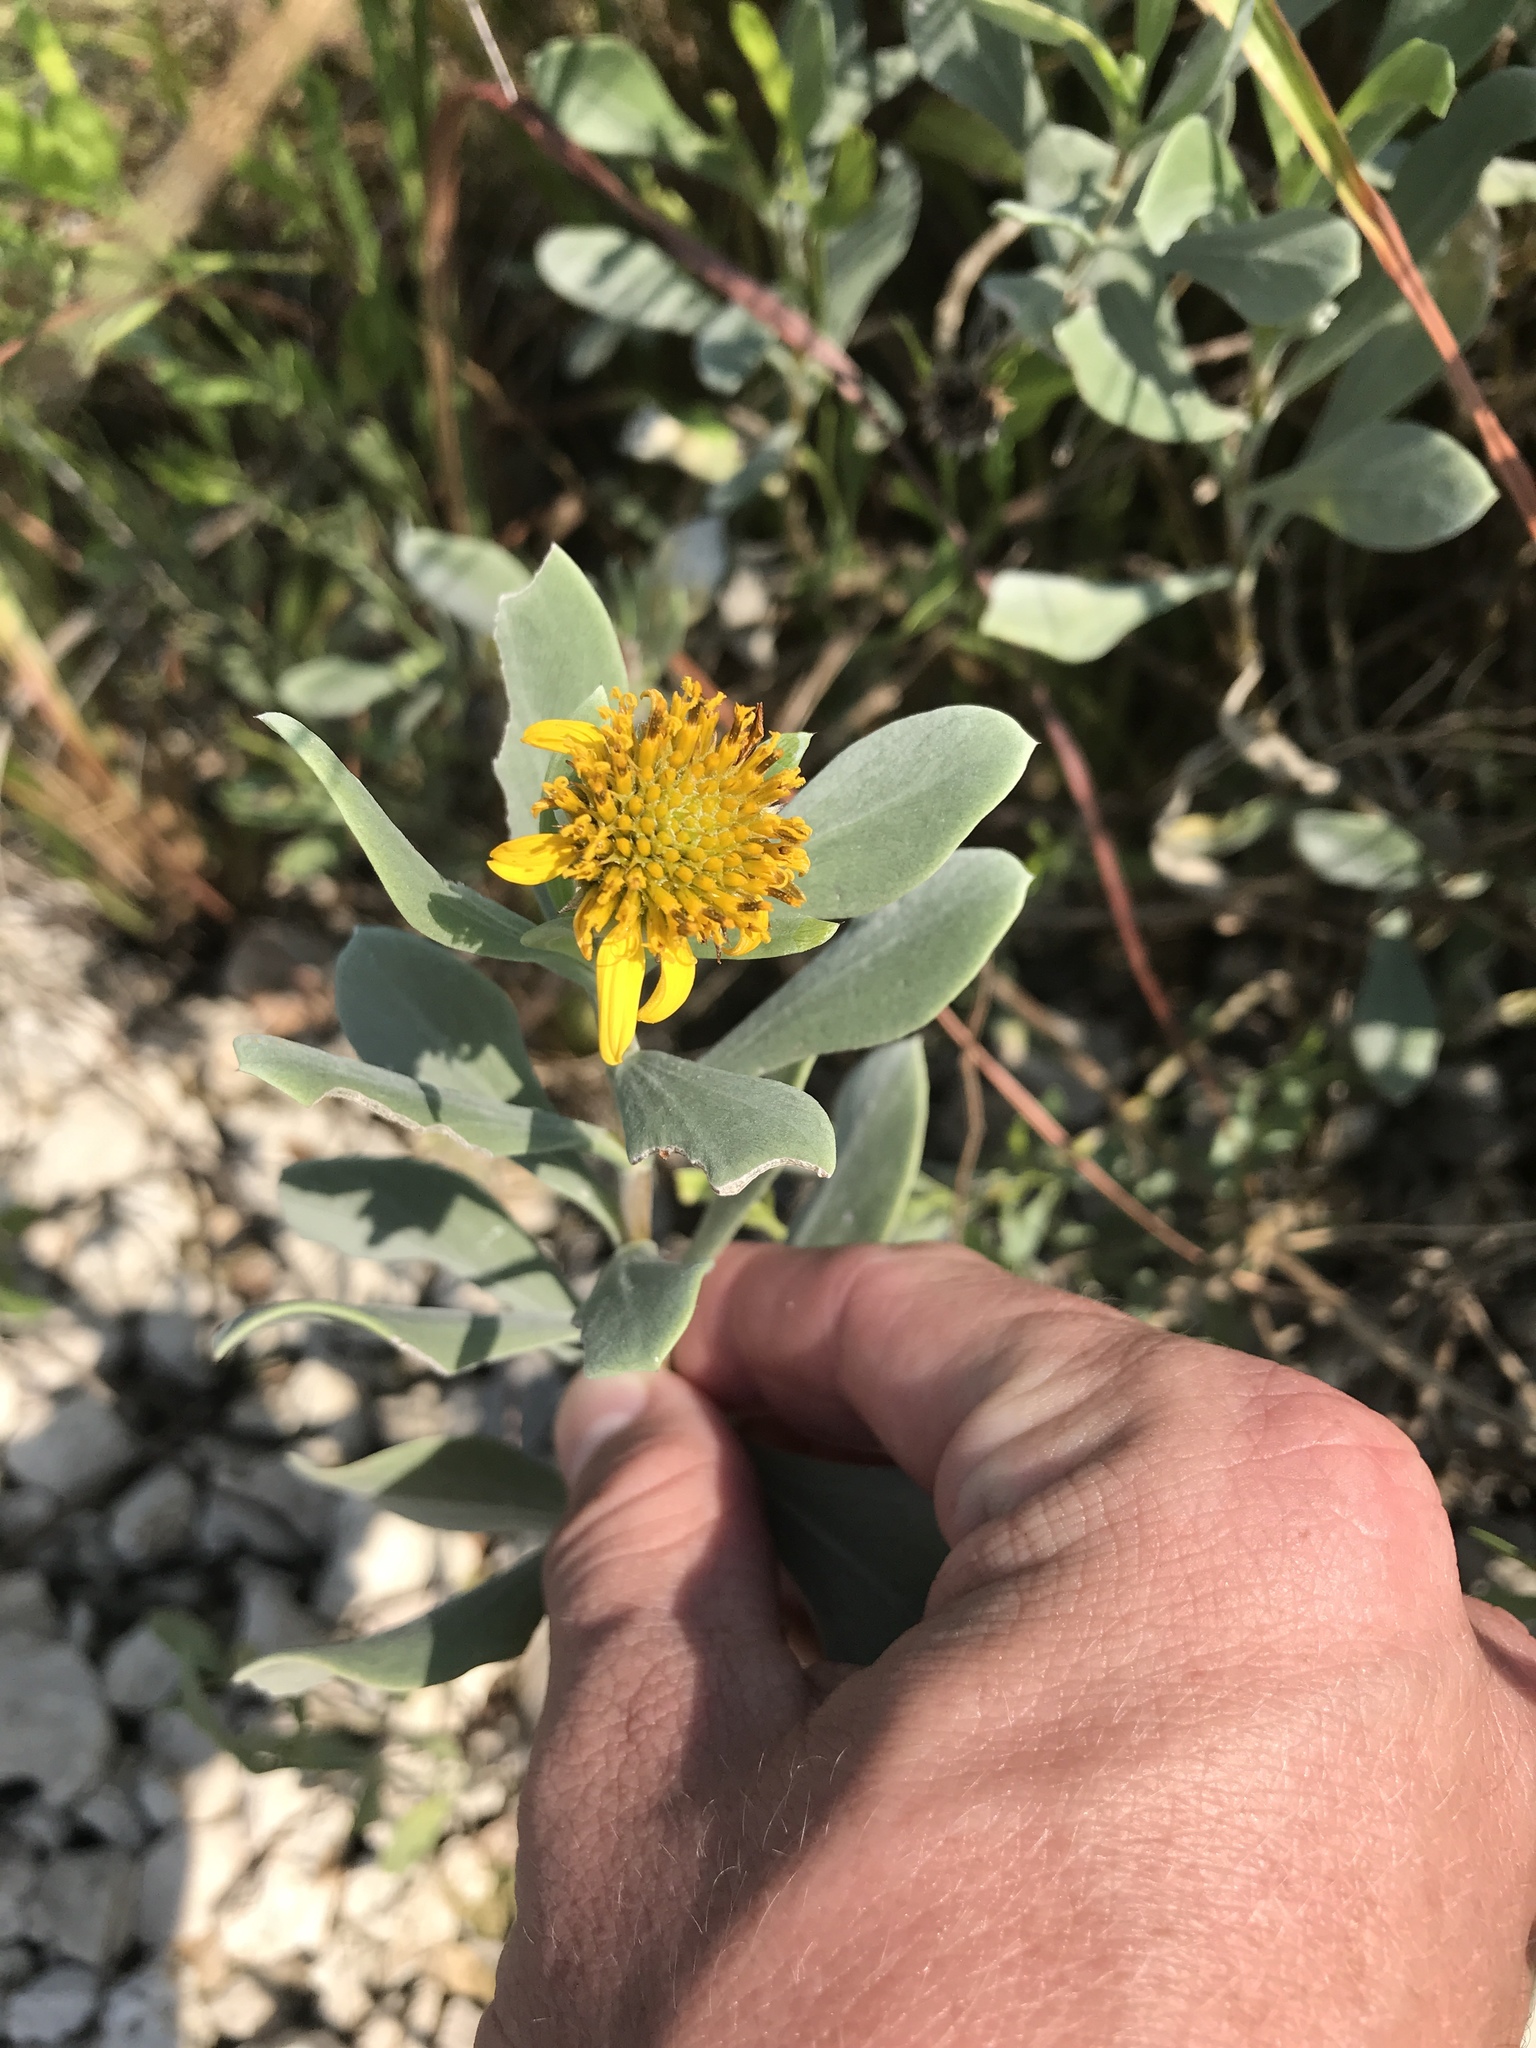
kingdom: Plantae
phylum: Tracheophyta
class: Magnoliopsida
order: Asterales
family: Asteraceae
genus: Borrichia
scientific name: Borrichia frutescens
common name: Sea oxeye
